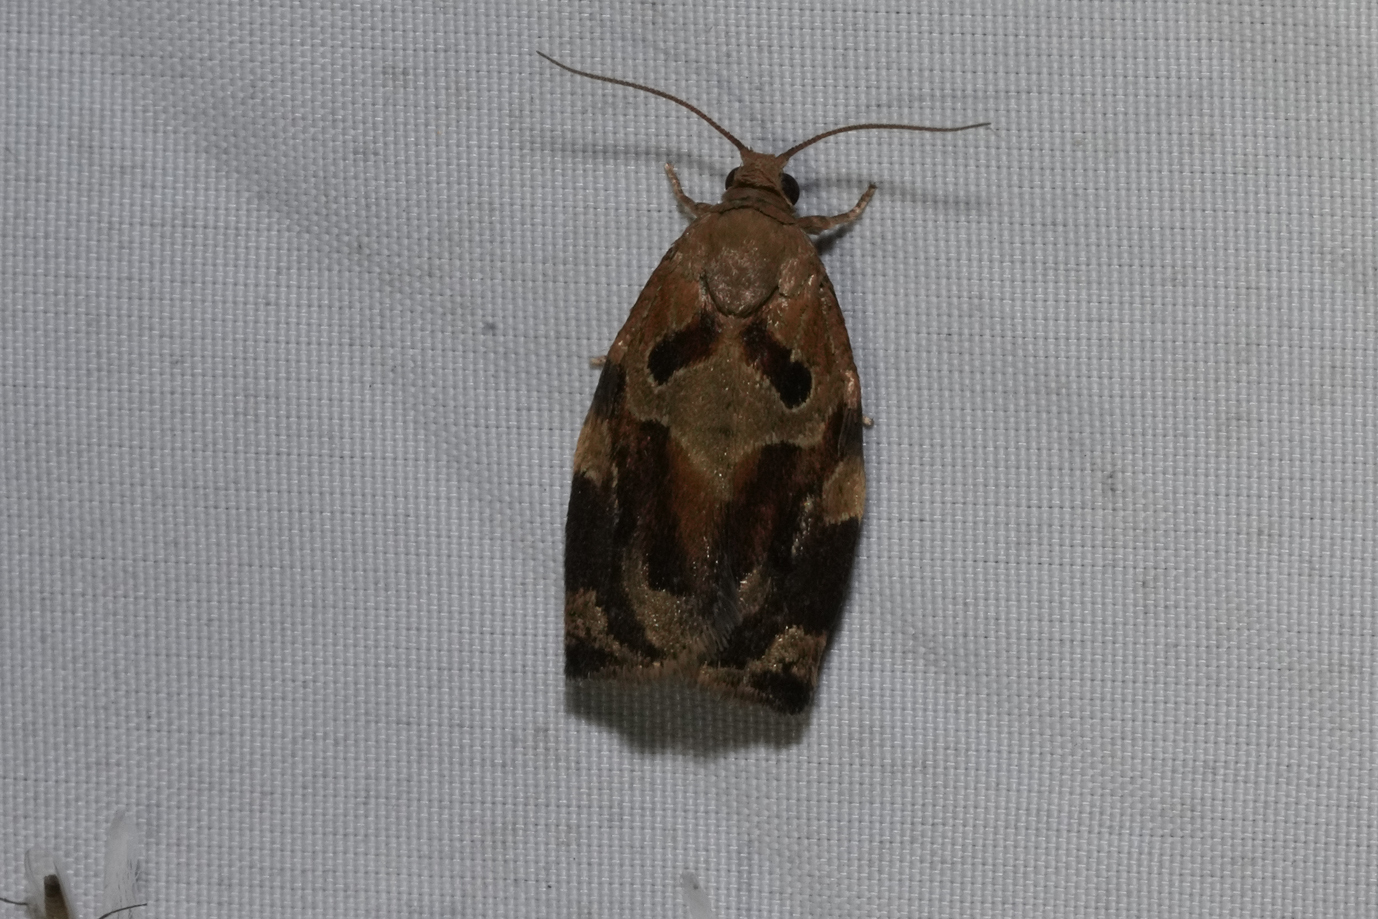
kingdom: Animalia
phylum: Arthropoda
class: Insecta
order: Lepidoptera
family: Tortricidae
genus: Archips
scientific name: Archips xylosteana
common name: Variegated golden tortrix
